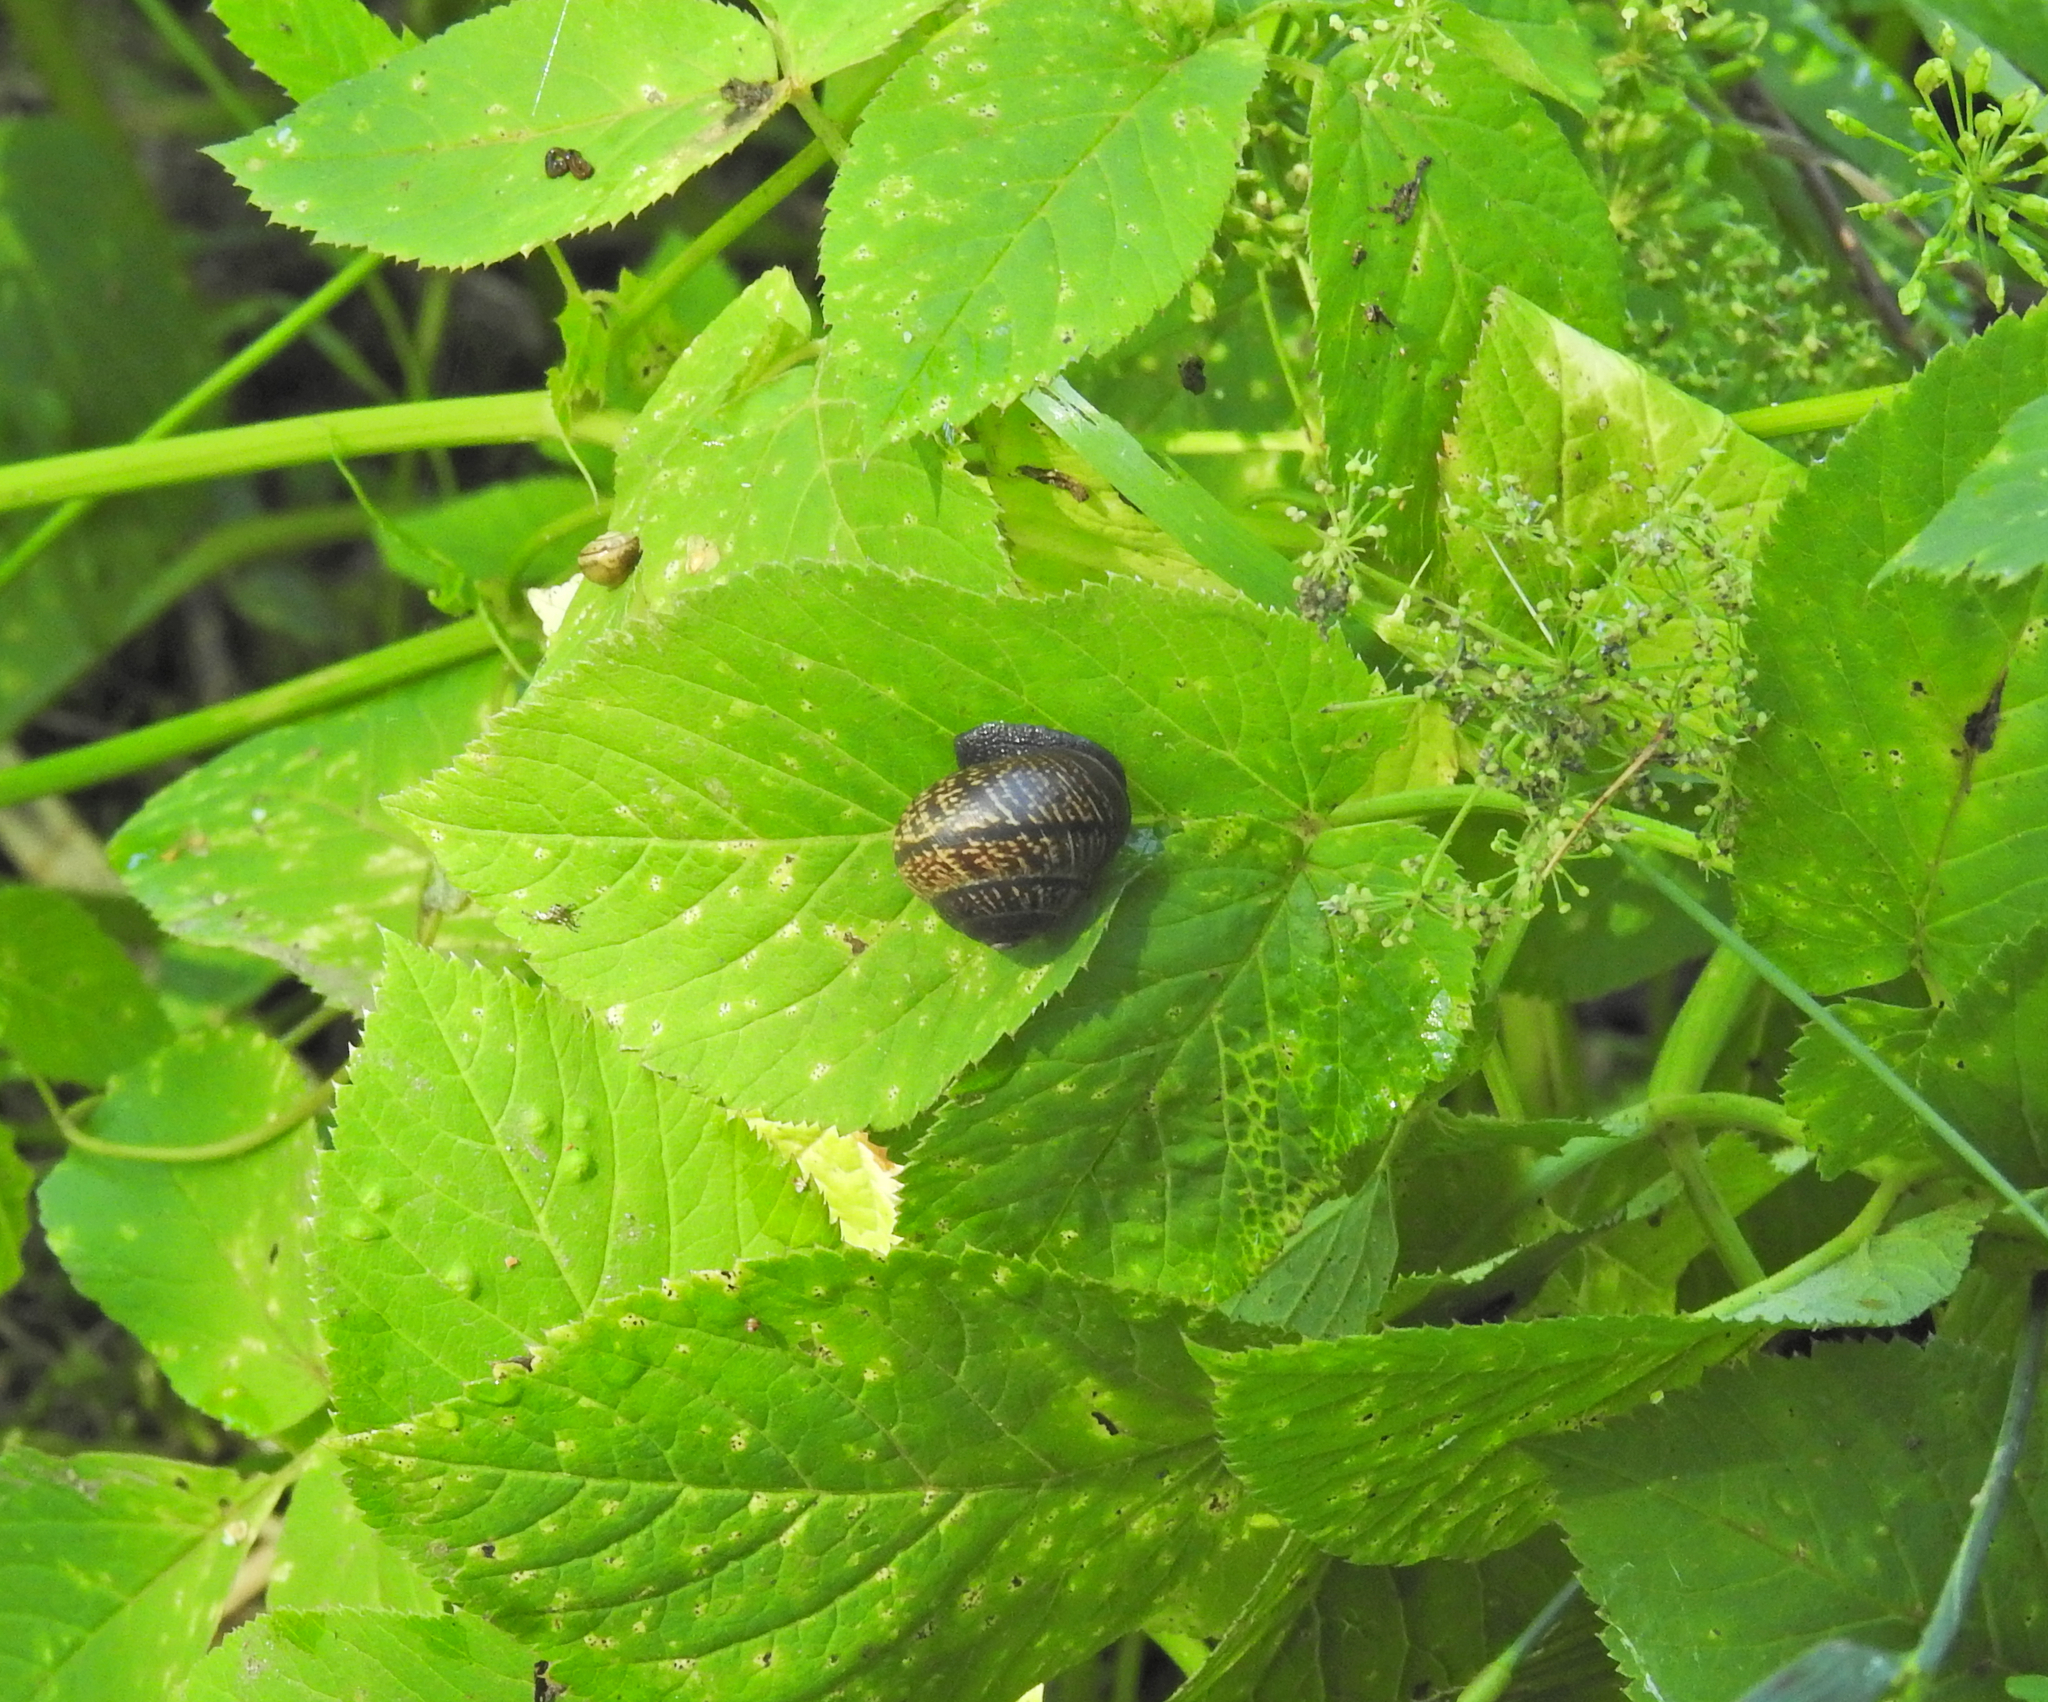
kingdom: Animalia
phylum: Mollusca
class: Gastropoda
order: Stylommatophora
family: Helicidae
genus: Arianta
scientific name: Arianta arbustorum
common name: Copse snail
